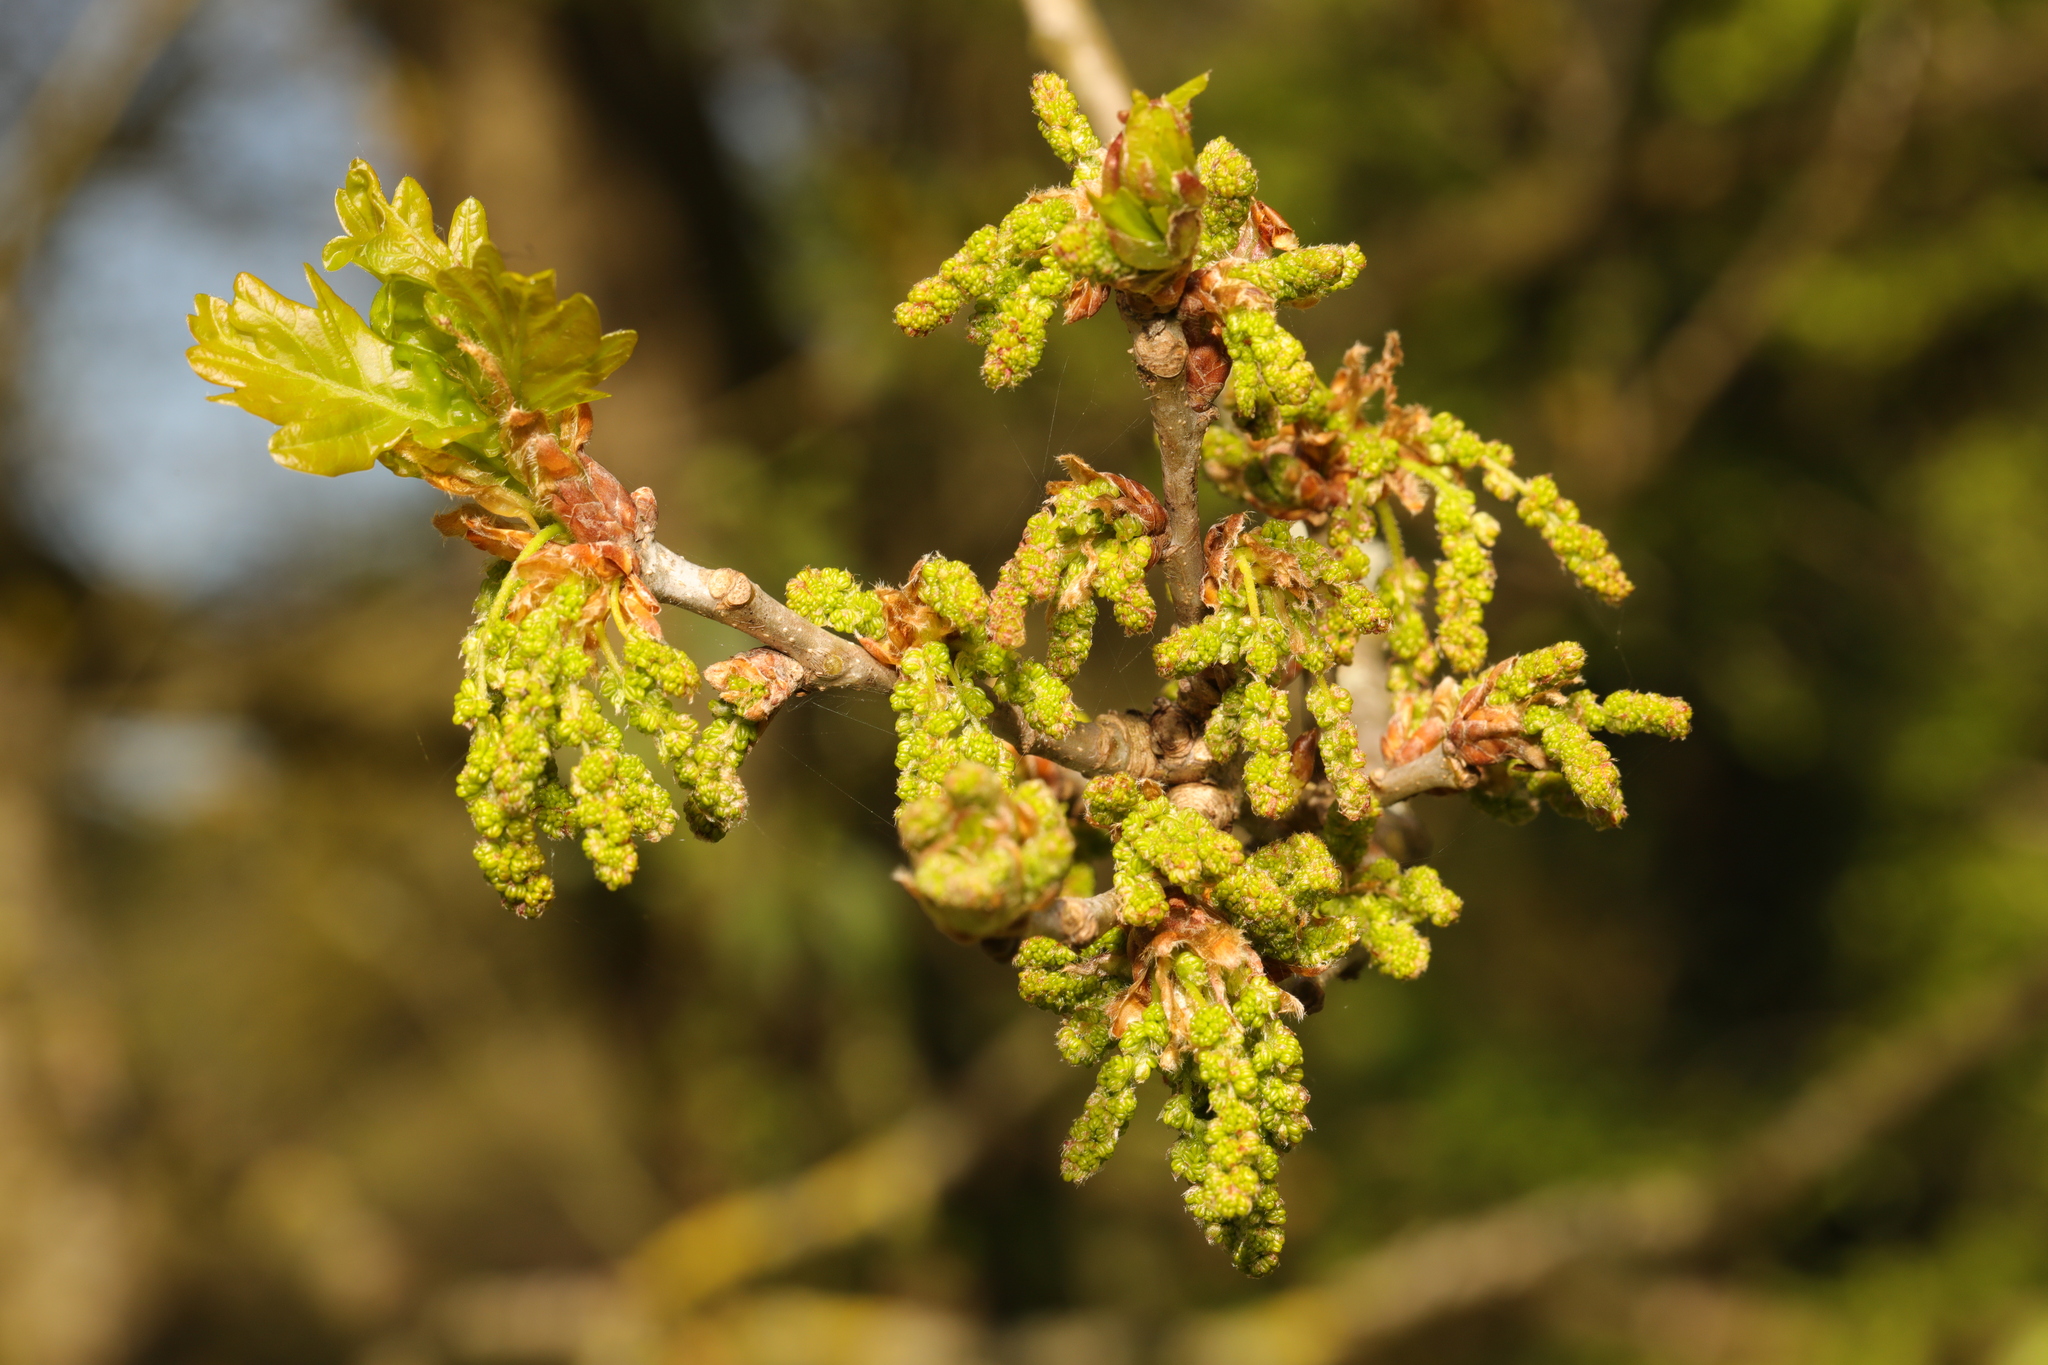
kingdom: Plantae
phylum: Tracheophyta
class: Magnoliopsida
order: Fagales
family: Fagaceae
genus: Quercus
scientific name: Quercus robur
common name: Pedunculate oak
